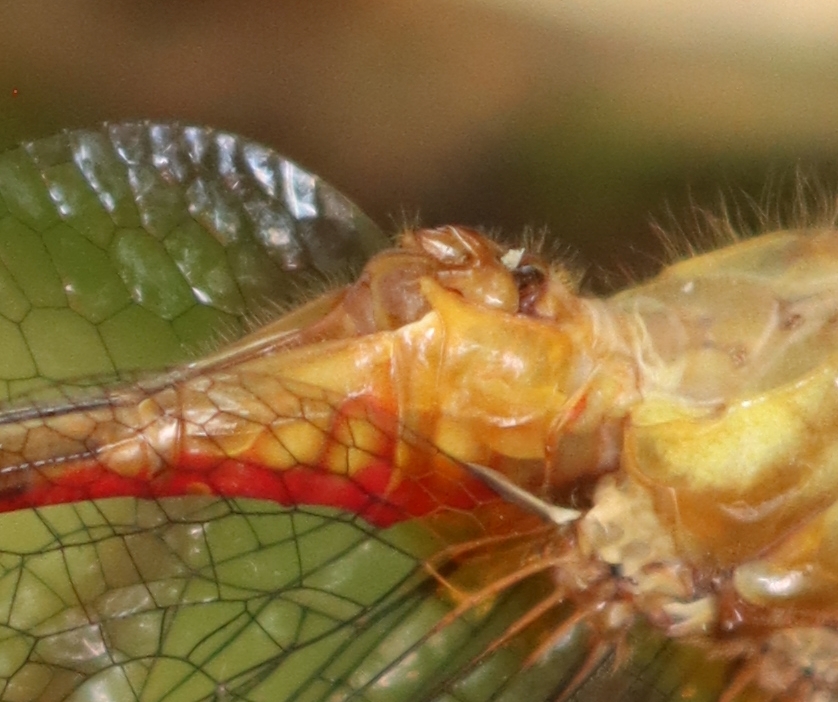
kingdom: Animalia
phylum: Arthropoda
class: Insecta
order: Odonata
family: Libellulidae
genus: Sympetrum
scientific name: Sympetrum rubicundulum
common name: Ruby meadowhawk
